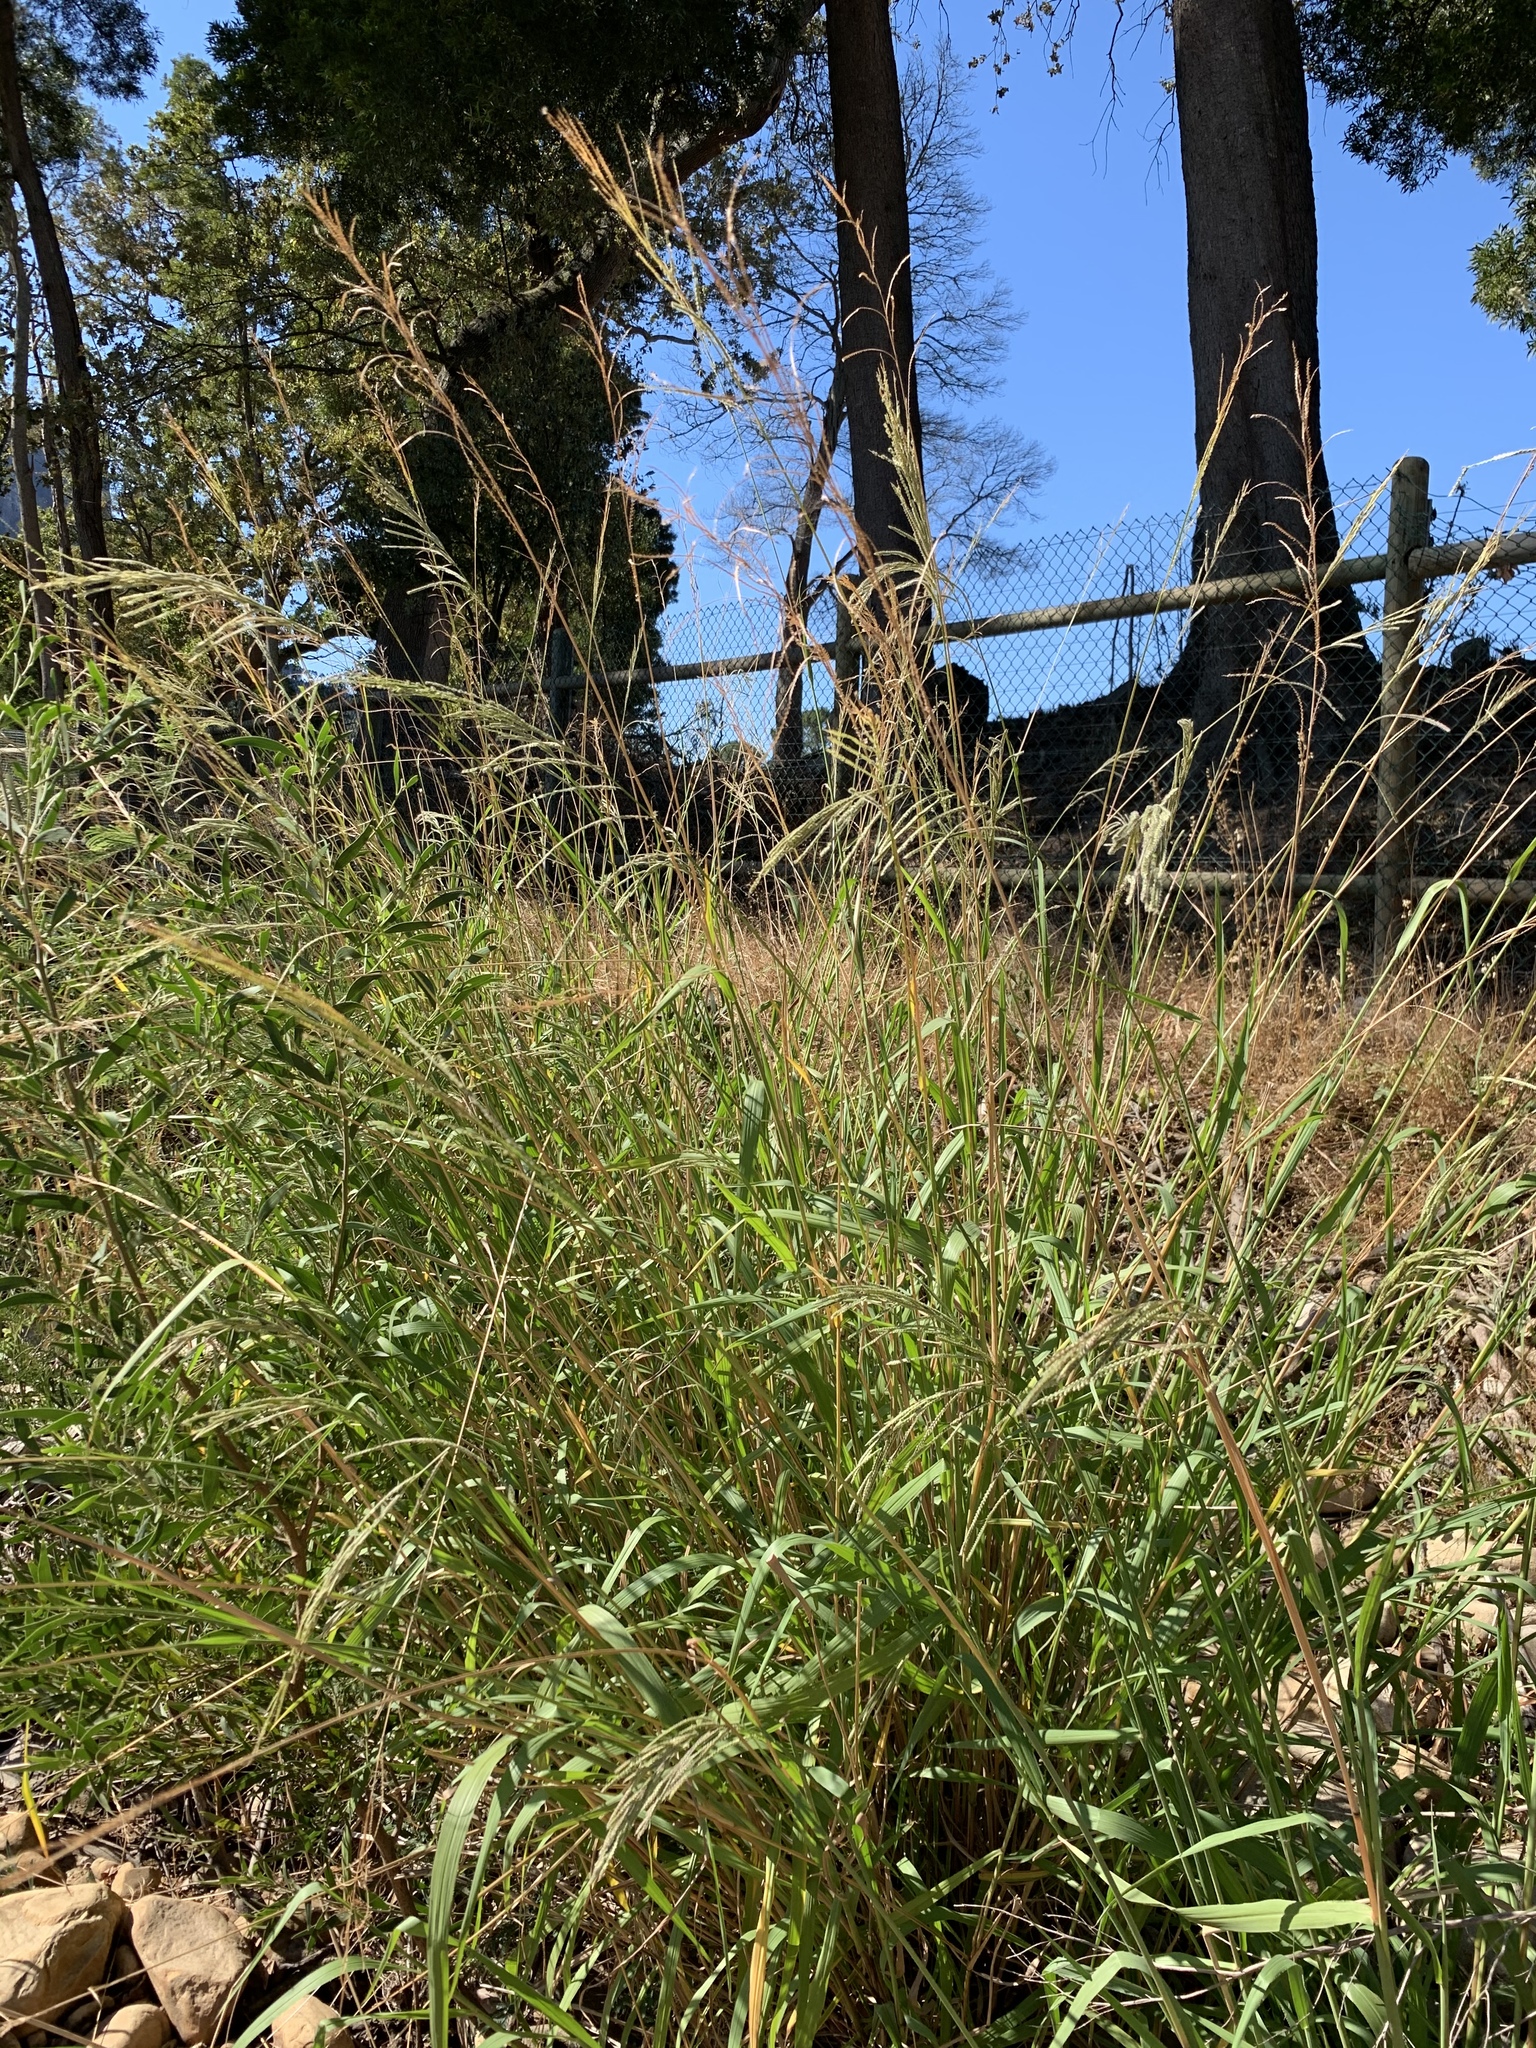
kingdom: Plantae
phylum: Tracheophyta
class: Liliopsida
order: Poales
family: Poaceae
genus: Paspalum
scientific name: Paspalum urvillei
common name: Vasey's grass
